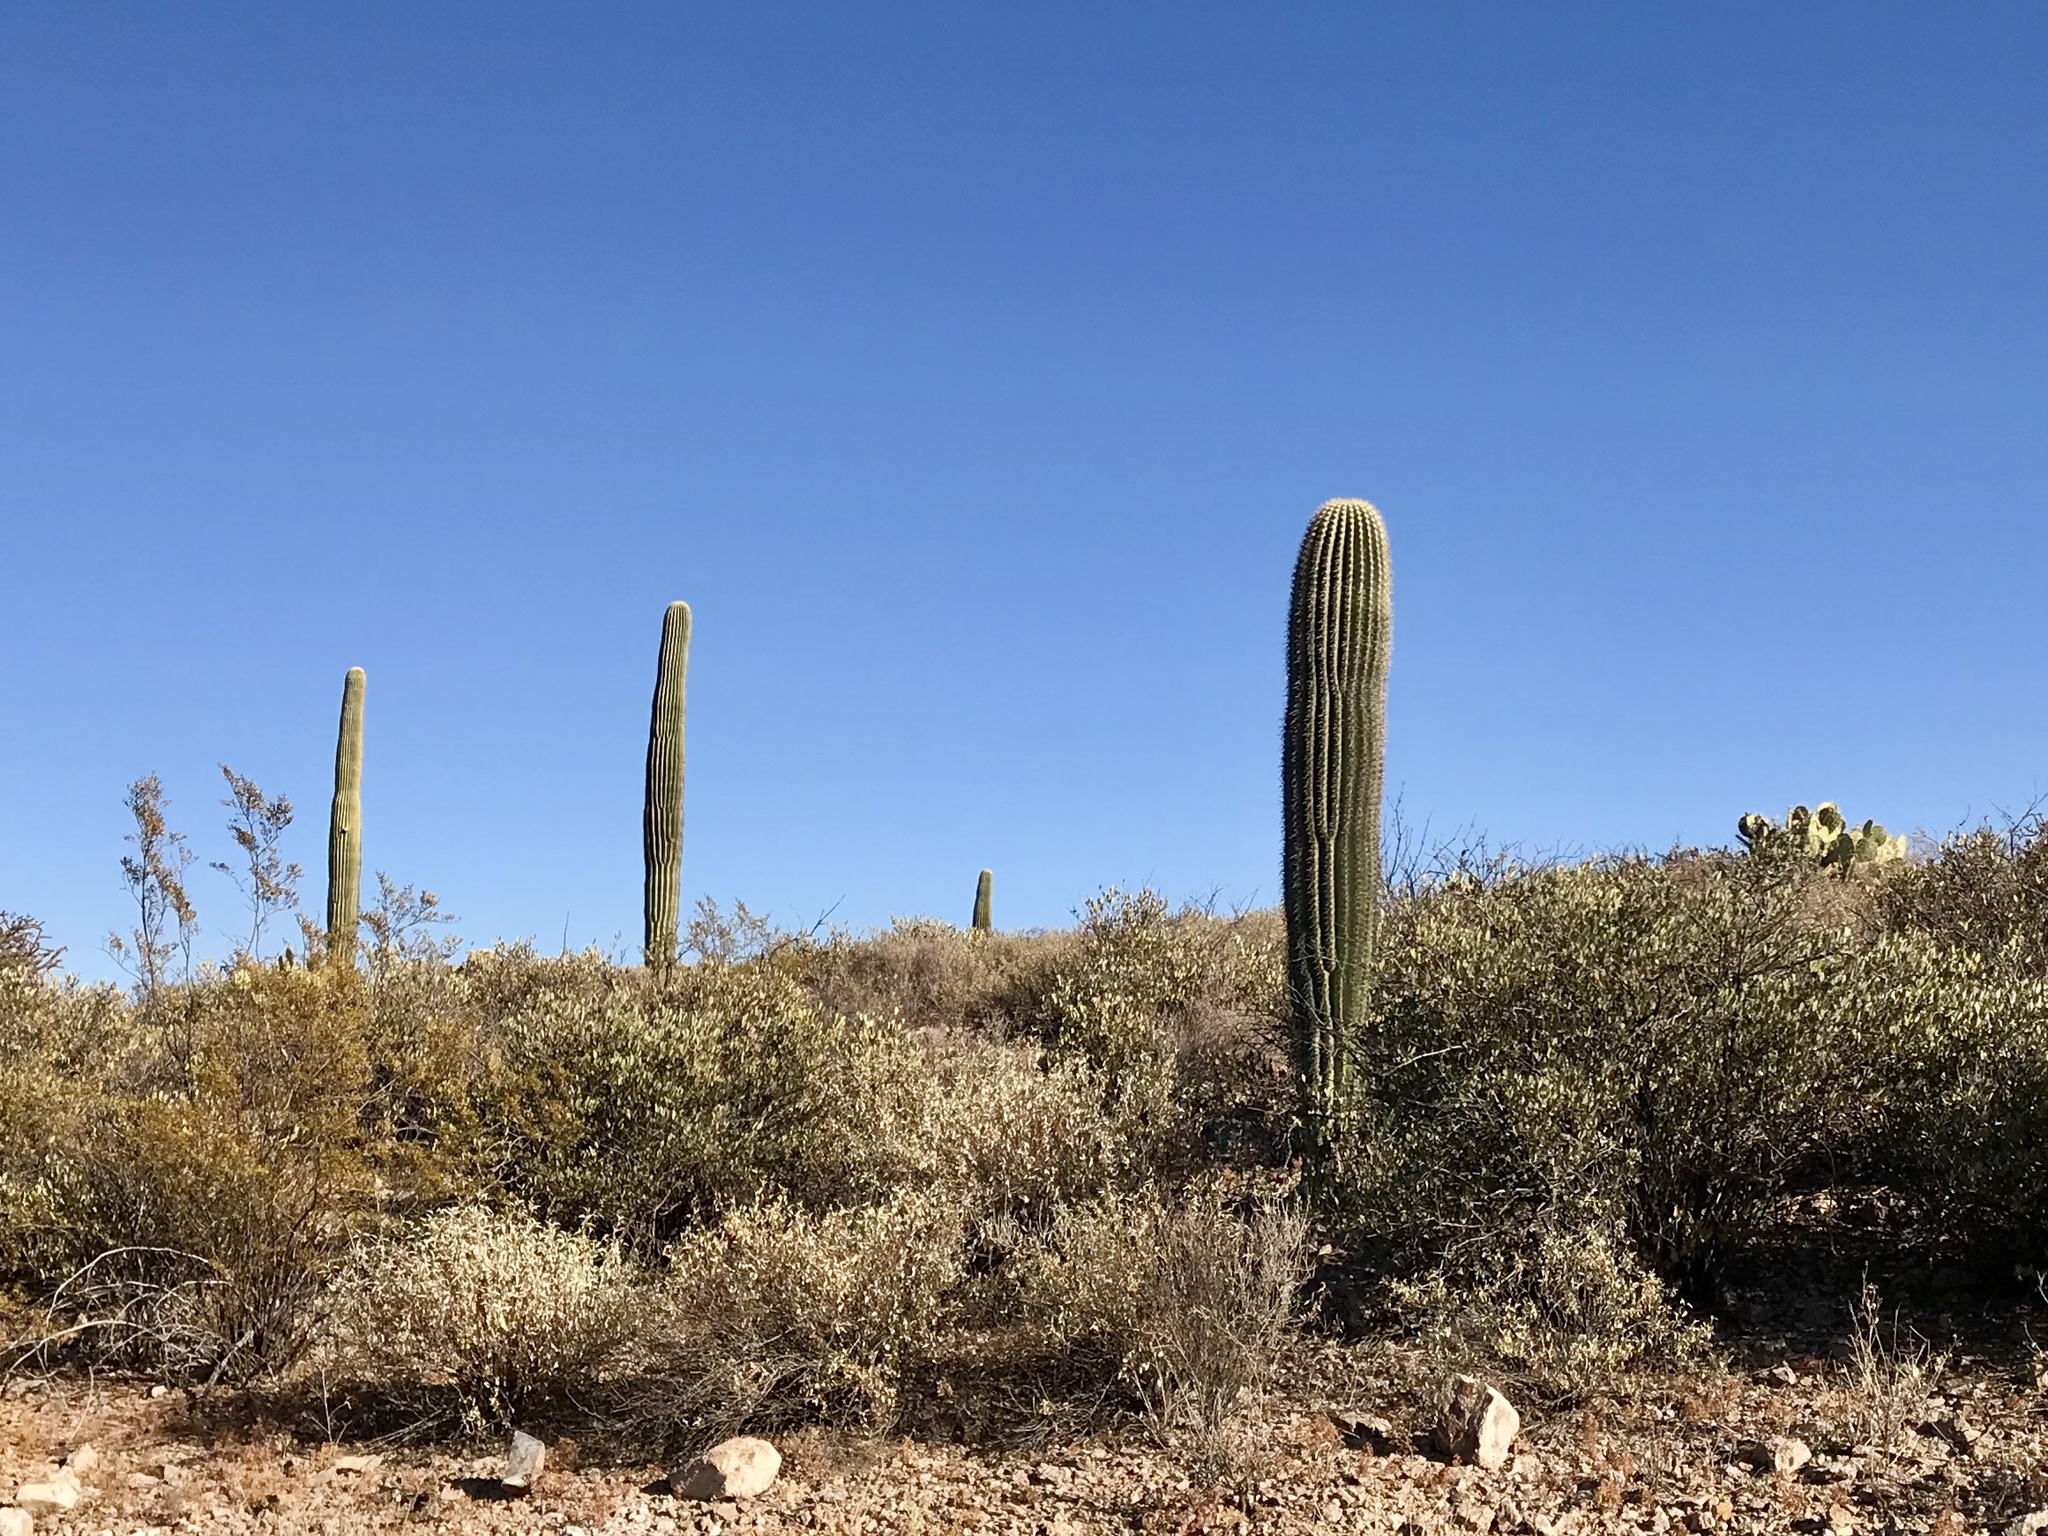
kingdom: Plantae
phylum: Tracheophyta
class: Magnoliopsida
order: Caryophyllales
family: Cactaceae
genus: Carnegiea
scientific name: Carnegiea gigantea
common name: Saguaro
